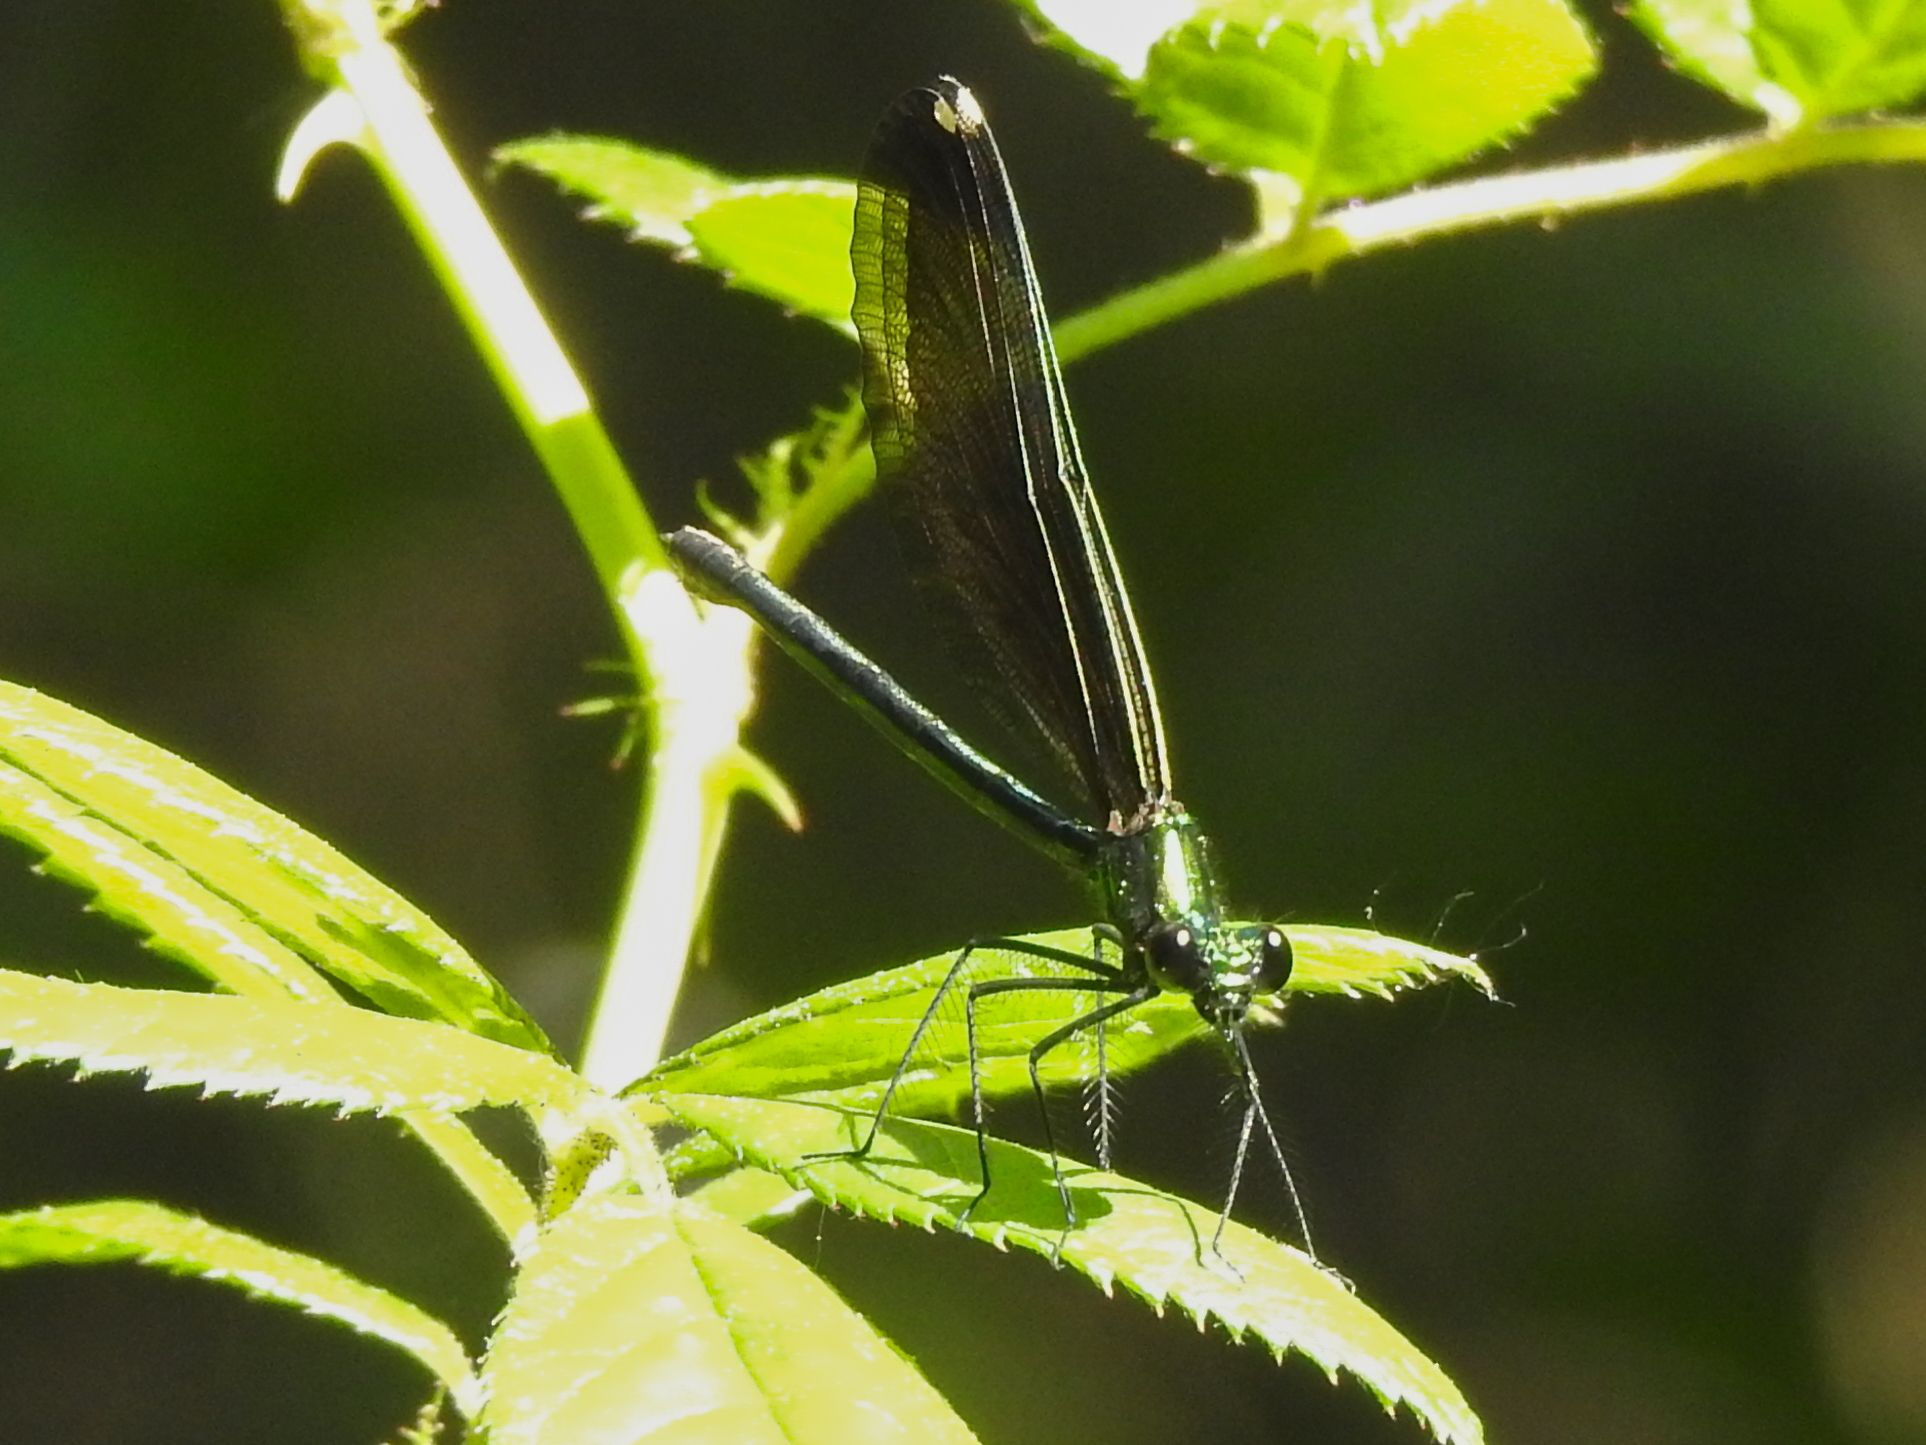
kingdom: Animalia
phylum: Arthropoda
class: Insecta
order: Odonata
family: Calopterygidae
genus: Calopteryx
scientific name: Calopteryx maculata
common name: Ebony jewelwing
